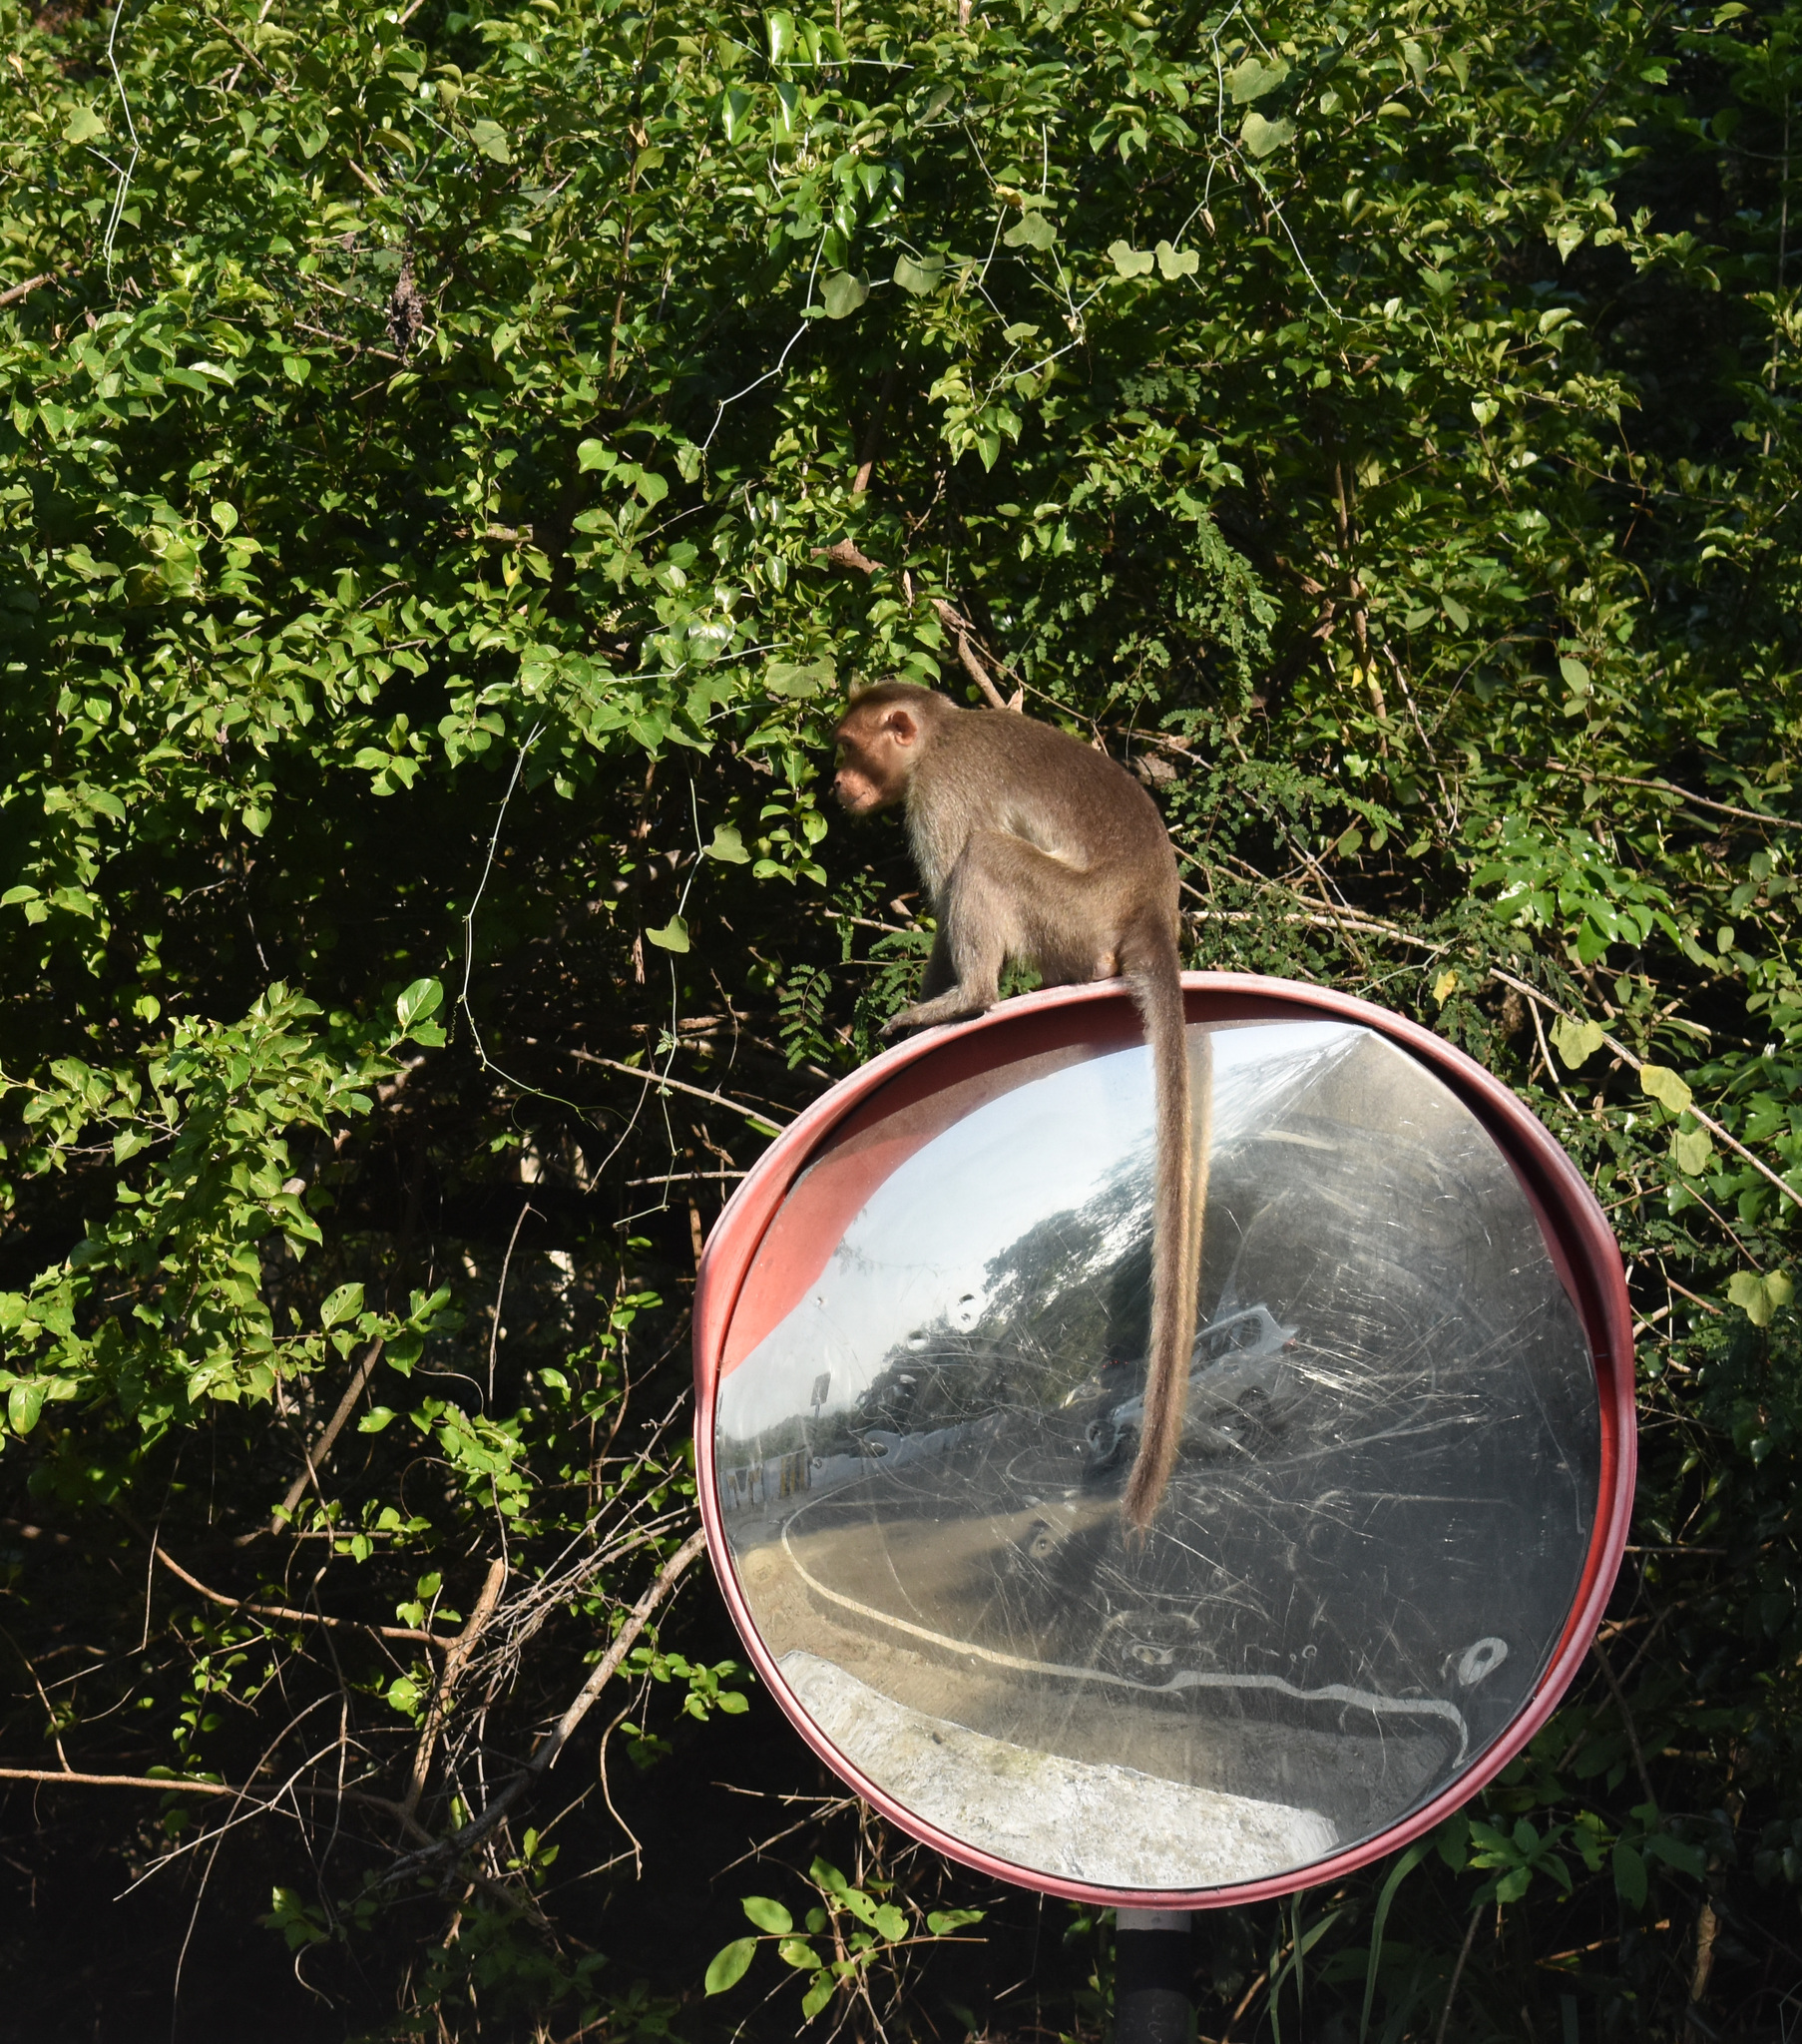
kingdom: Animalia
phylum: Chordata
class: Mammalia
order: Primates
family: Cercopithecidae
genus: Macaca
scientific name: Macaca radiata
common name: Bonnet macaque
